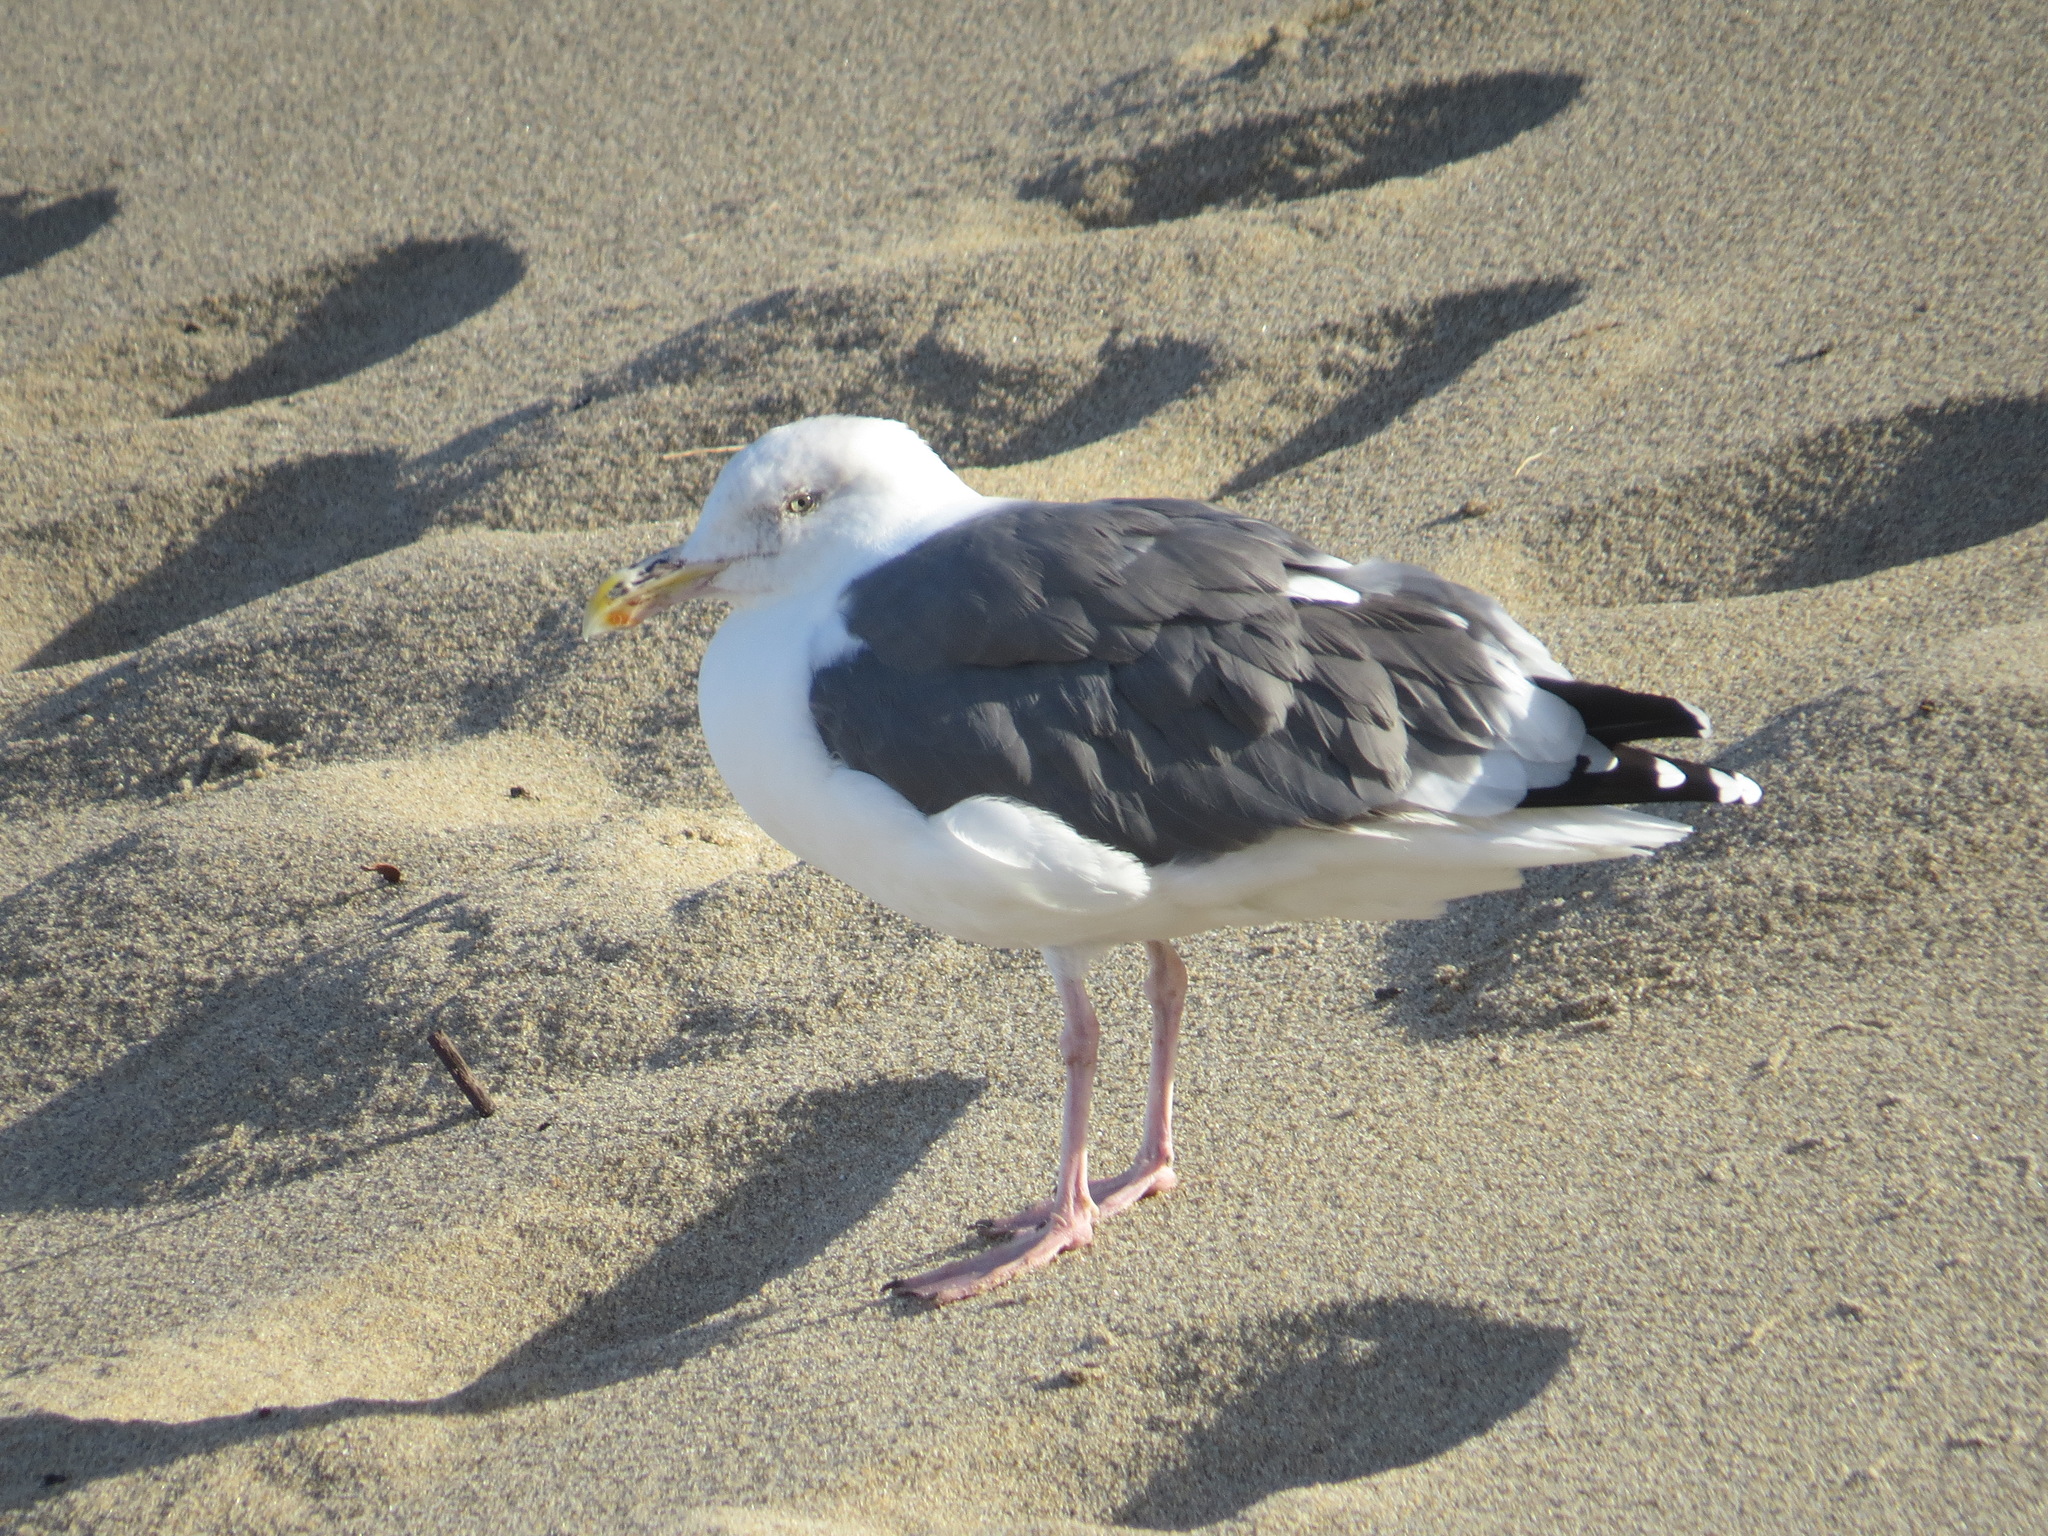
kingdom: Animalia
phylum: Chordata
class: Aves
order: Charadriiformes
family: Laridae
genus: Larus
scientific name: Larus occidentalis
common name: Western gull
